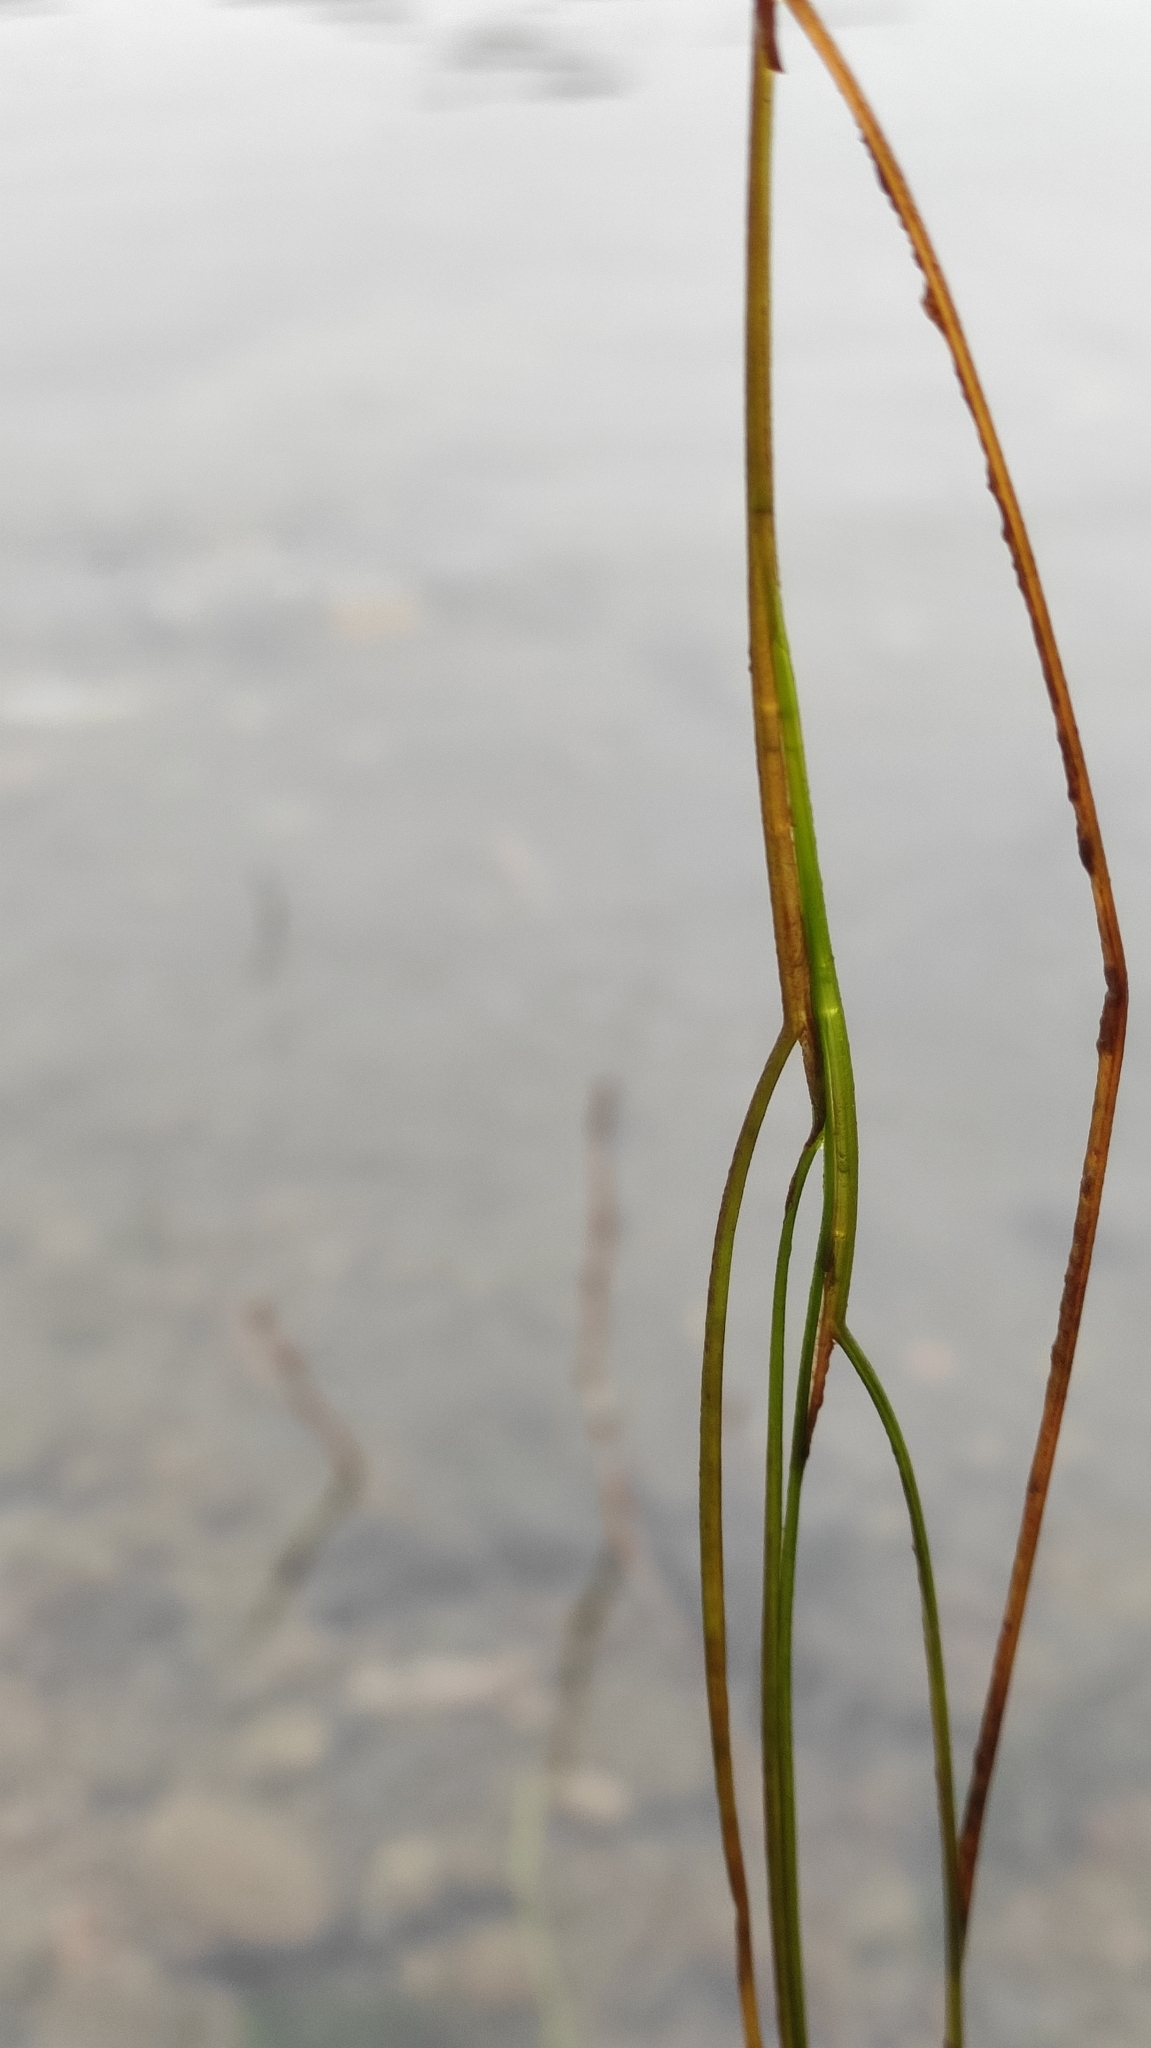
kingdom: Plantae
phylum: Tracheophyta
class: Liliopsida
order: Alismatales
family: Potamogetonaceae
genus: Stuckenia
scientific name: Stuckenia pectinata
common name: Sago pondweed
